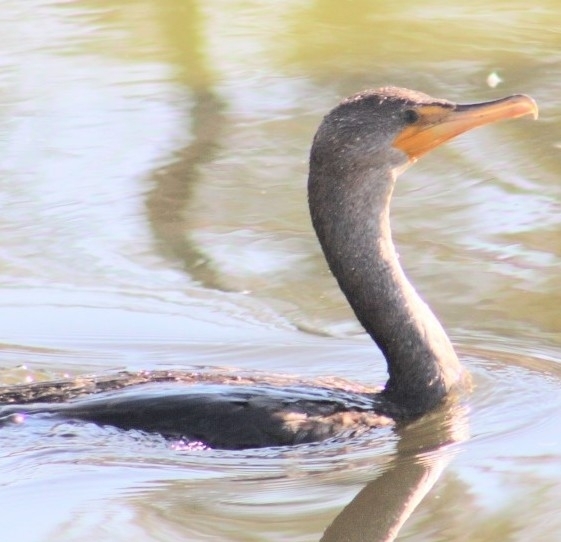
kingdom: Animalia
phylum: Chordata
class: Aves
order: Suliformes
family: Phalacrocoracidae
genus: Phalacrocorax
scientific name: Phalacrocorax auritus
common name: Double-crested cormorant
